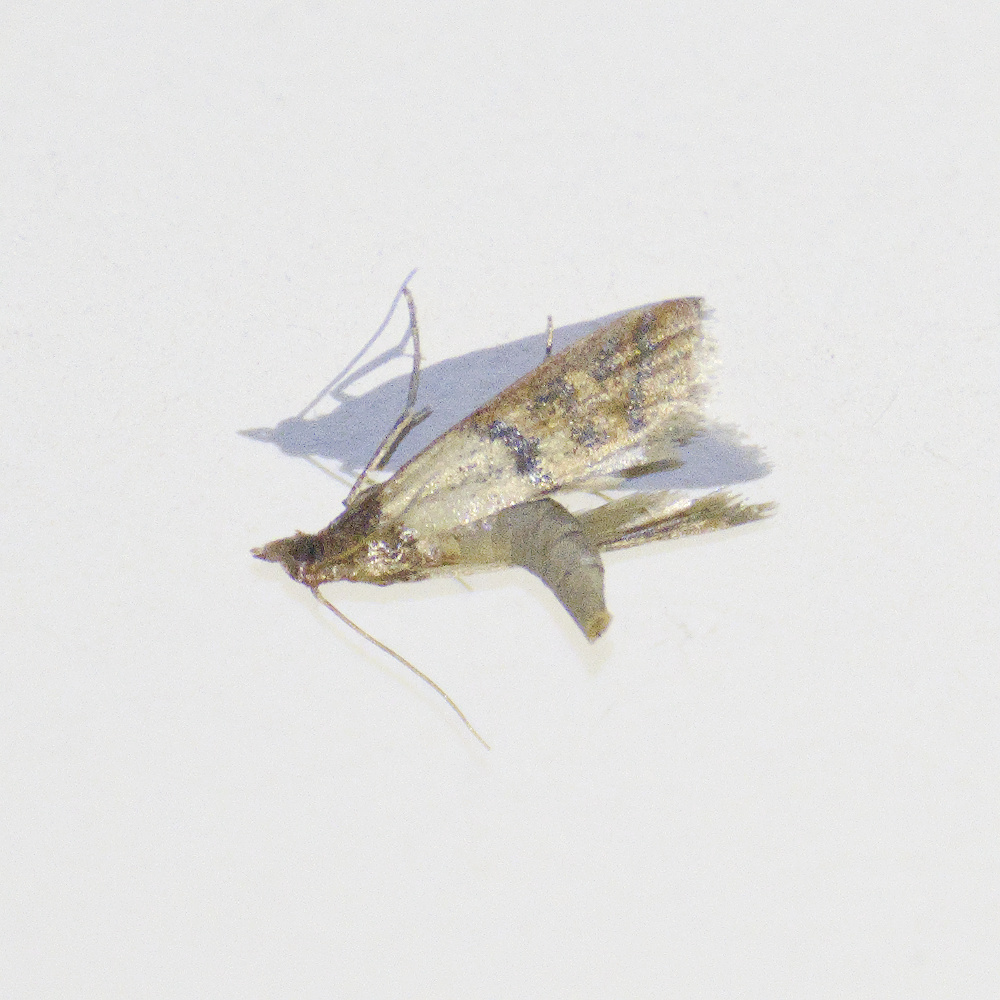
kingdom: Animalia
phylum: Arthropoda
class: Insecta
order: Lepidoptera
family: Pyralidae
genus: Plodia
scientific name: Plodia interpunctella
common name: Indian meal moth
